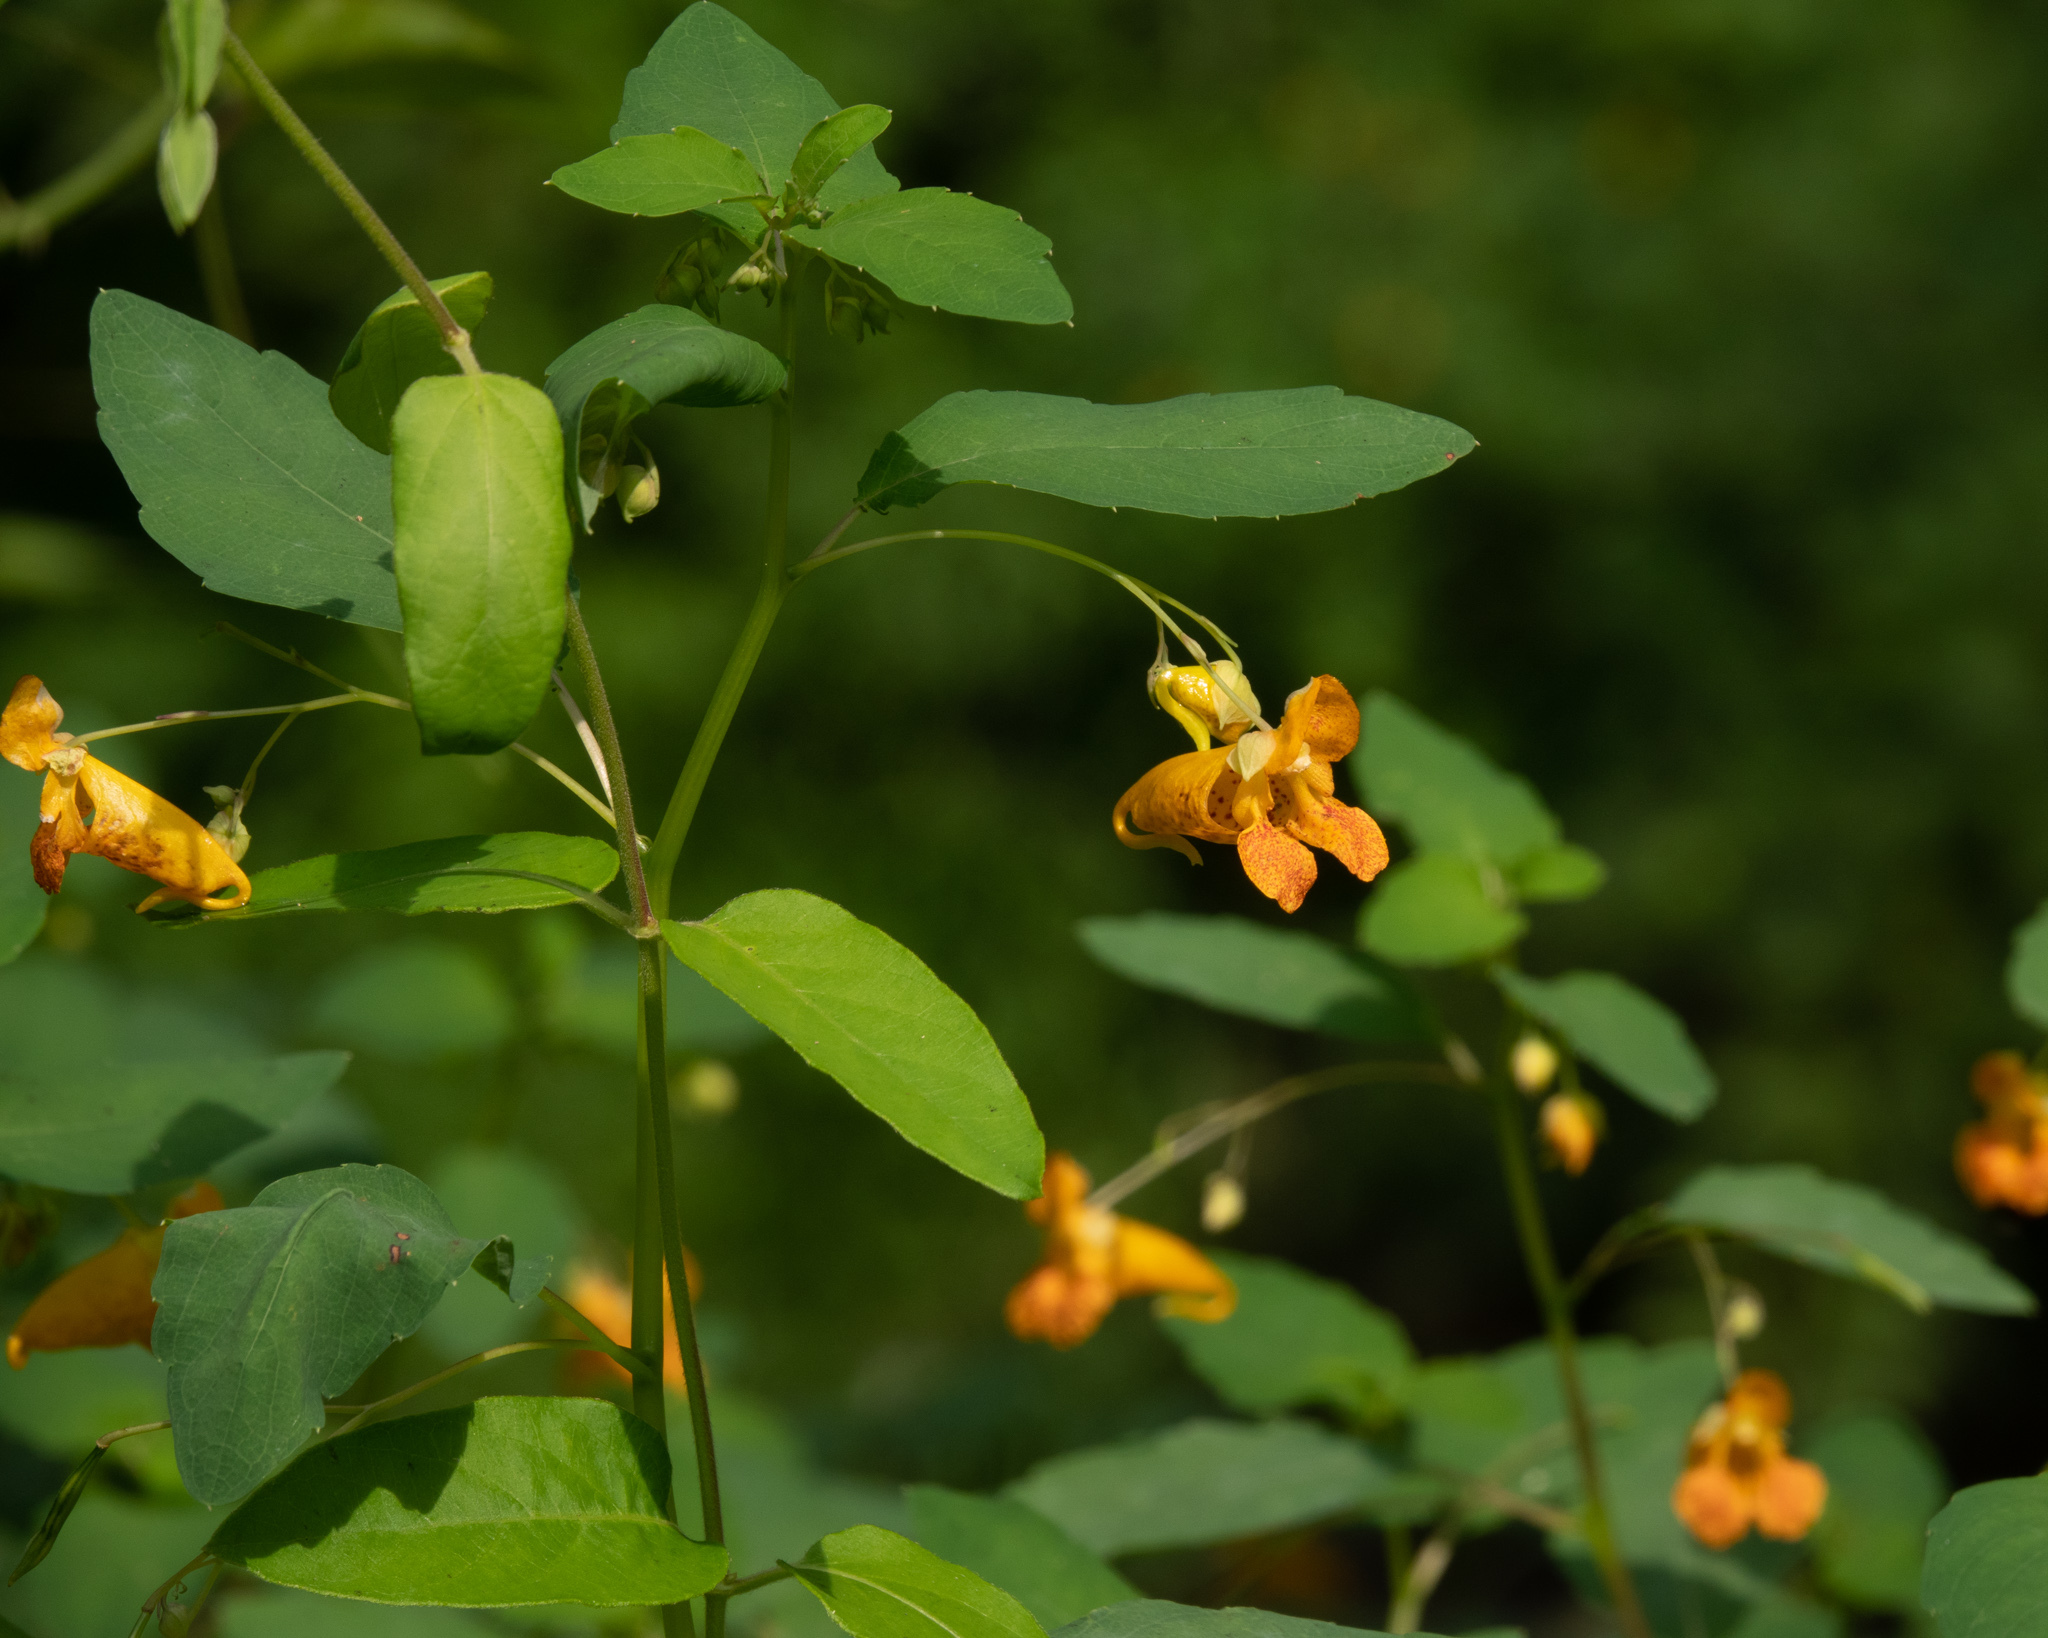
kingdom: Plantae
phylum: Tracheophyta
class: Magnoliopsida
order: Ericales
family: Balsaminaceae
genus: Impatiens
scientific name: Impatiens capensis
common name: Orange balsam
